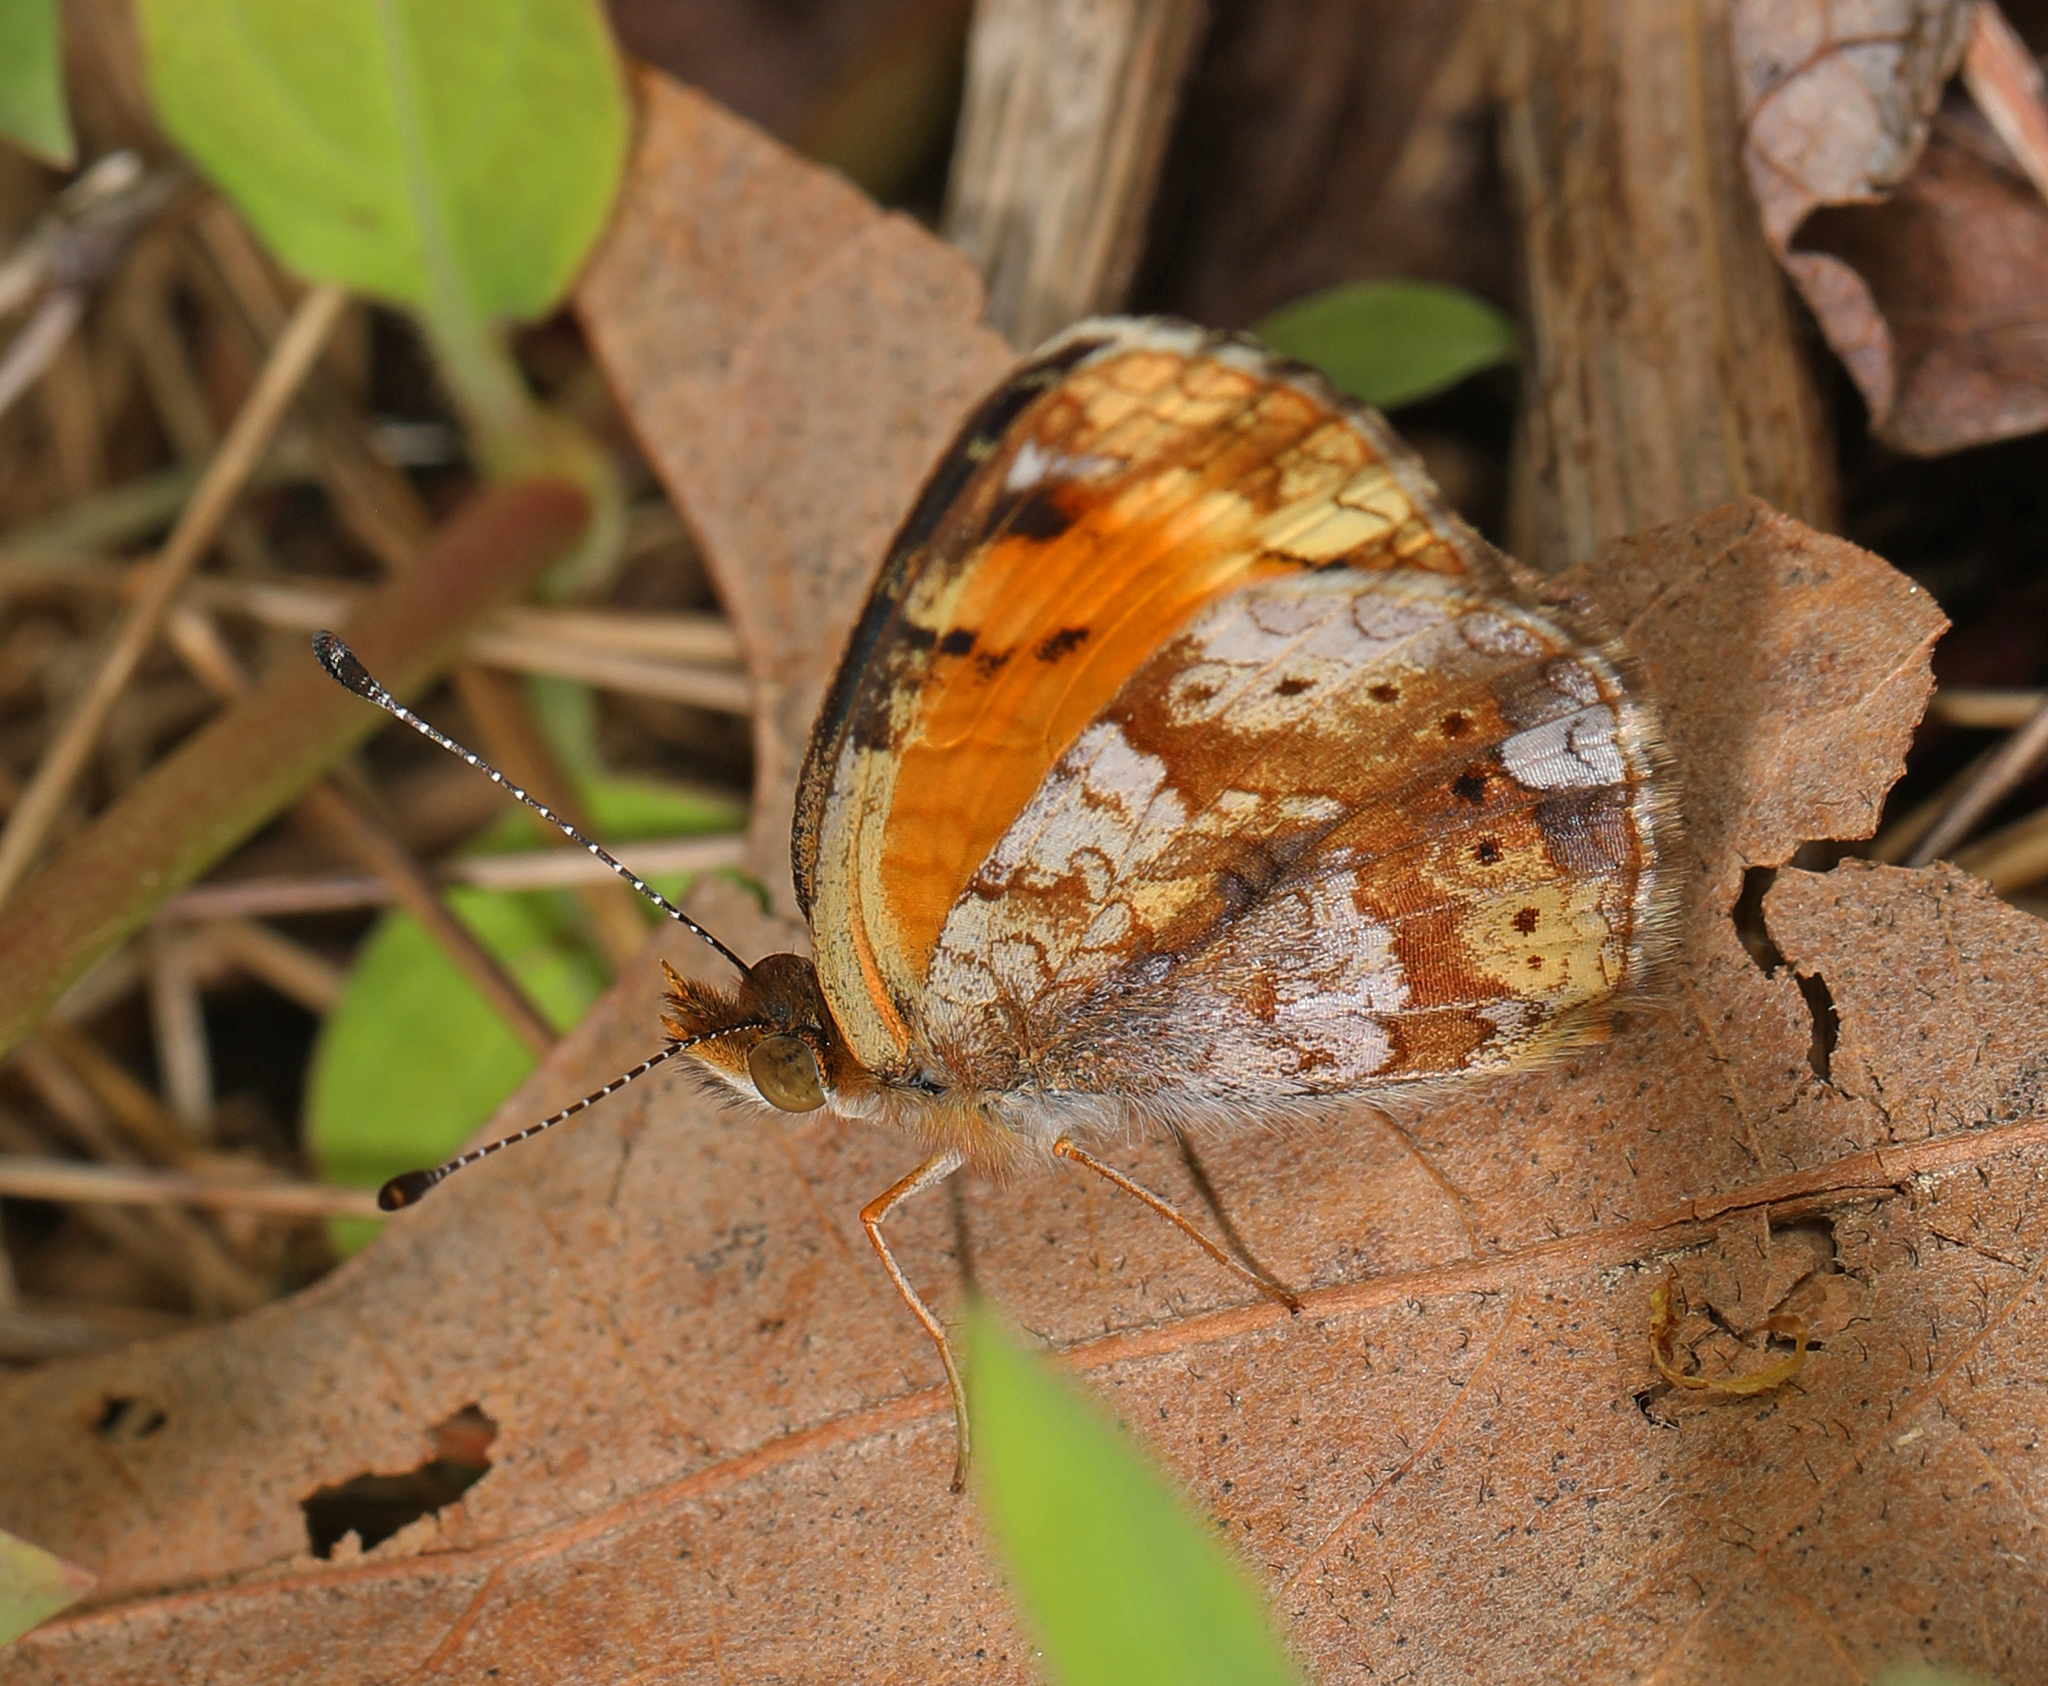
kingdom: Animalia
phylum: Arthropoda
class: Insecta
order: Lepidoptera
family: Nymphalidae
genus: Phyciodes
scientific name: Phyciodes tharos
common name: Pearl crescent
